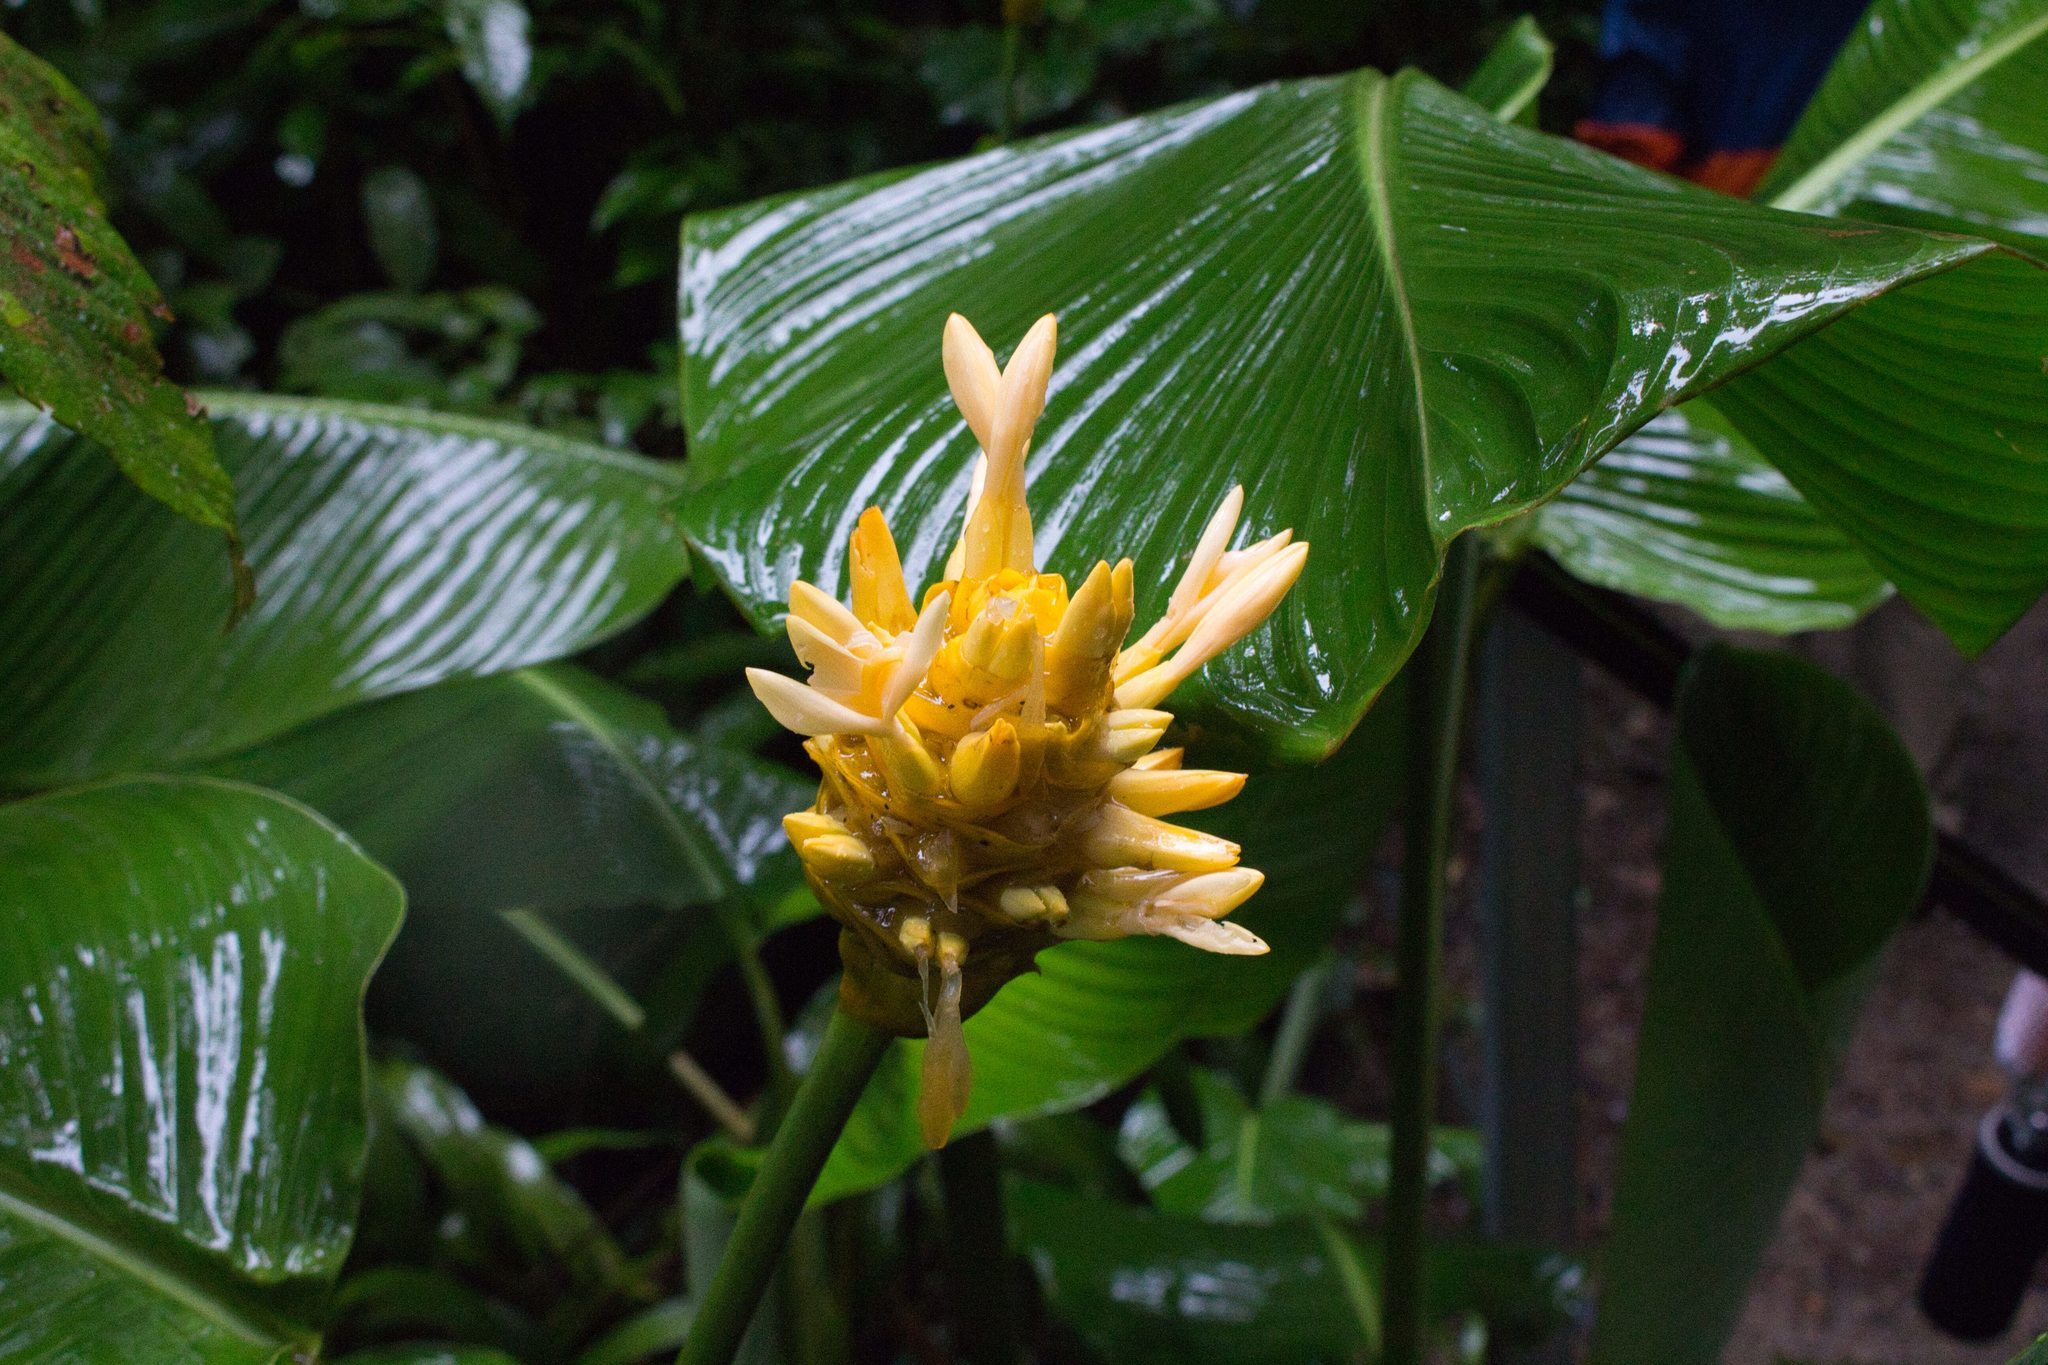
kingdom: Plantae
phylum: Tracheophyta
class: Liliopsida
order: Zingiberales
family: Marantaceae
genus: Goeppertia
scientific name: Goeppertia marantifolia
